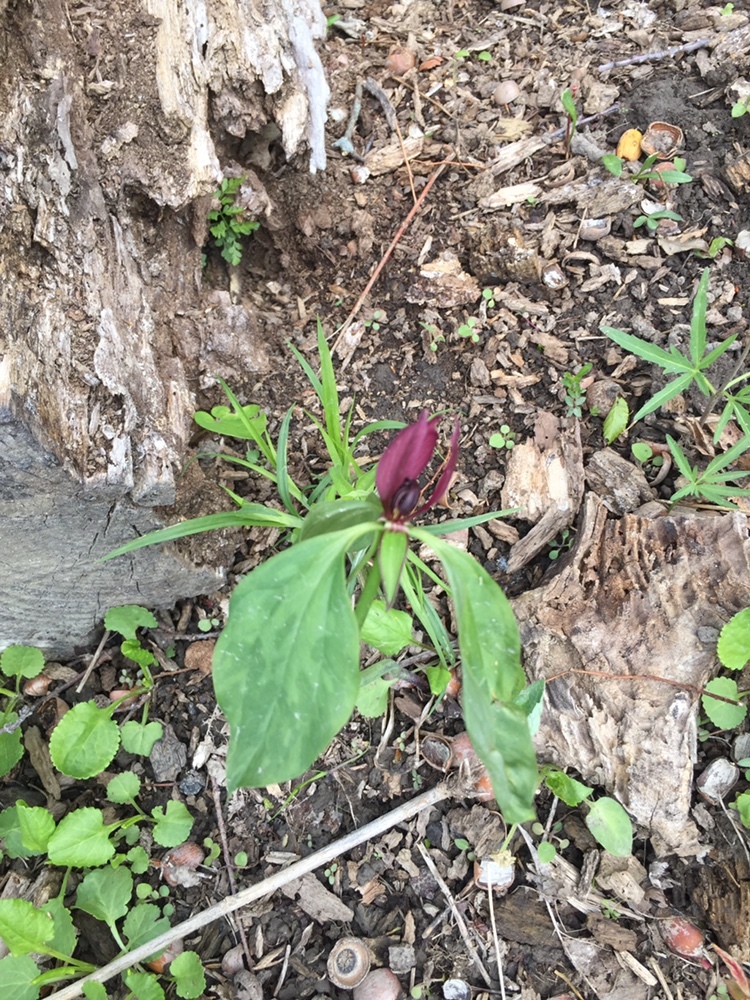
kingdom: Plantae
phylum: Tracheophyta
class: Liliopsida
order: Liliales
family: Melanthiaceae
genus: Trillium
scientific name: Trillium recurvatum
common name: Bloody butcher
